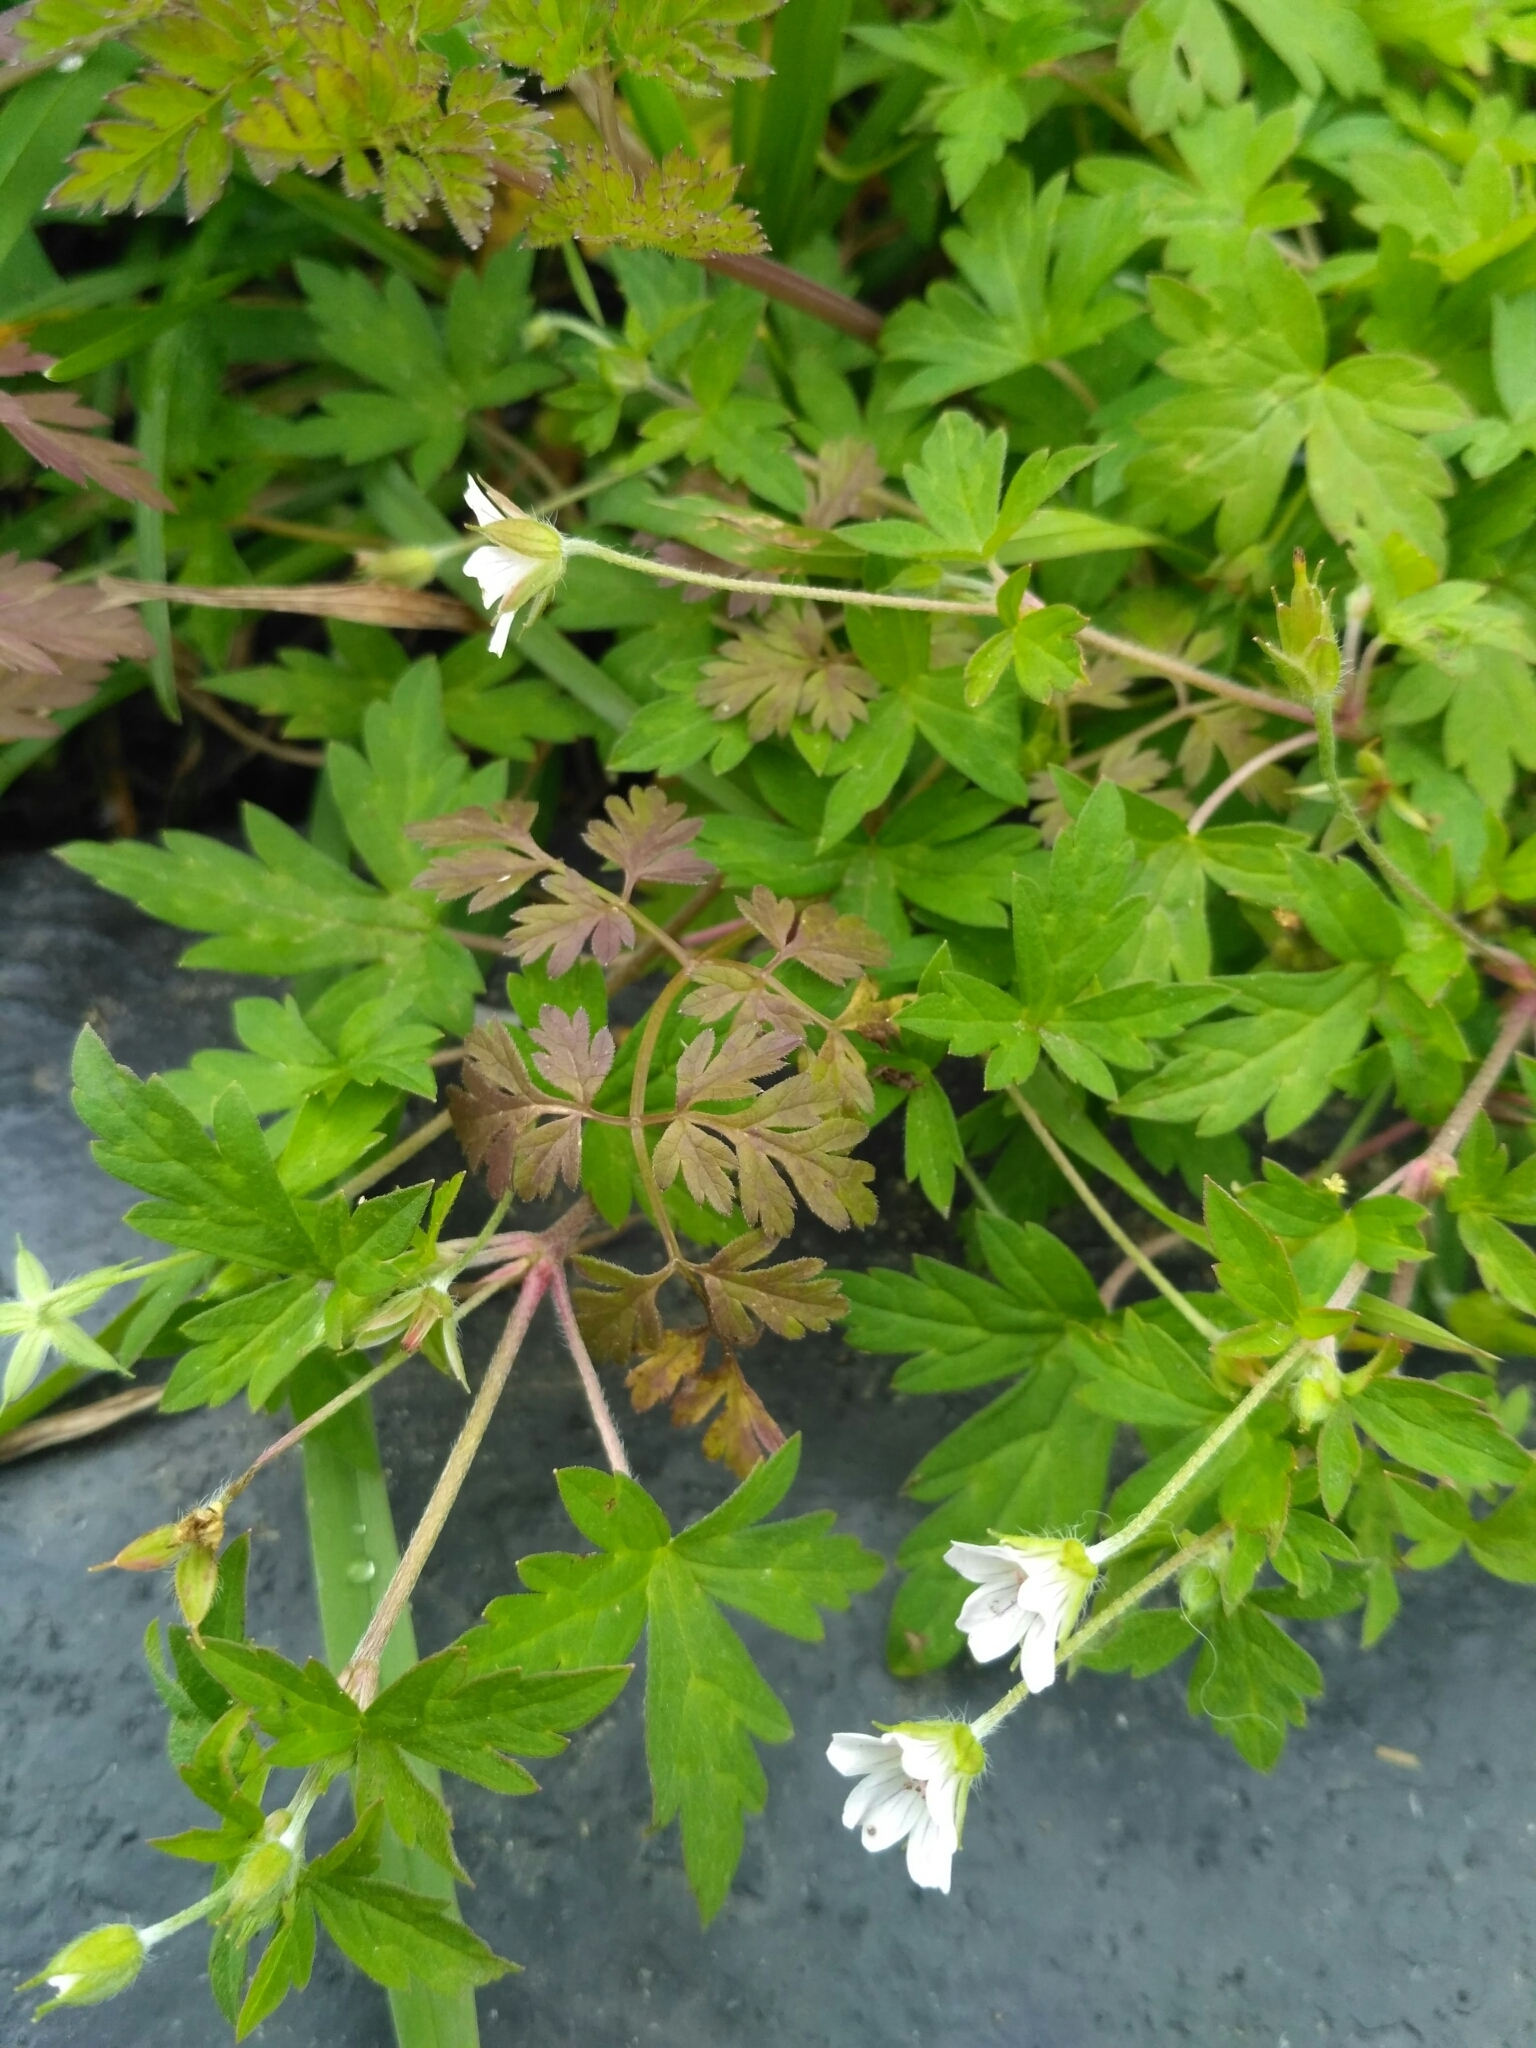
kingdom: Plantae
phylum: Tracheophyta
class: Magnoliopsida
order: Geraniales
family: Geraniaceae
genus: Geranium
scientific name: Geranium sibiricum
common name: Siberian crane's-bill
